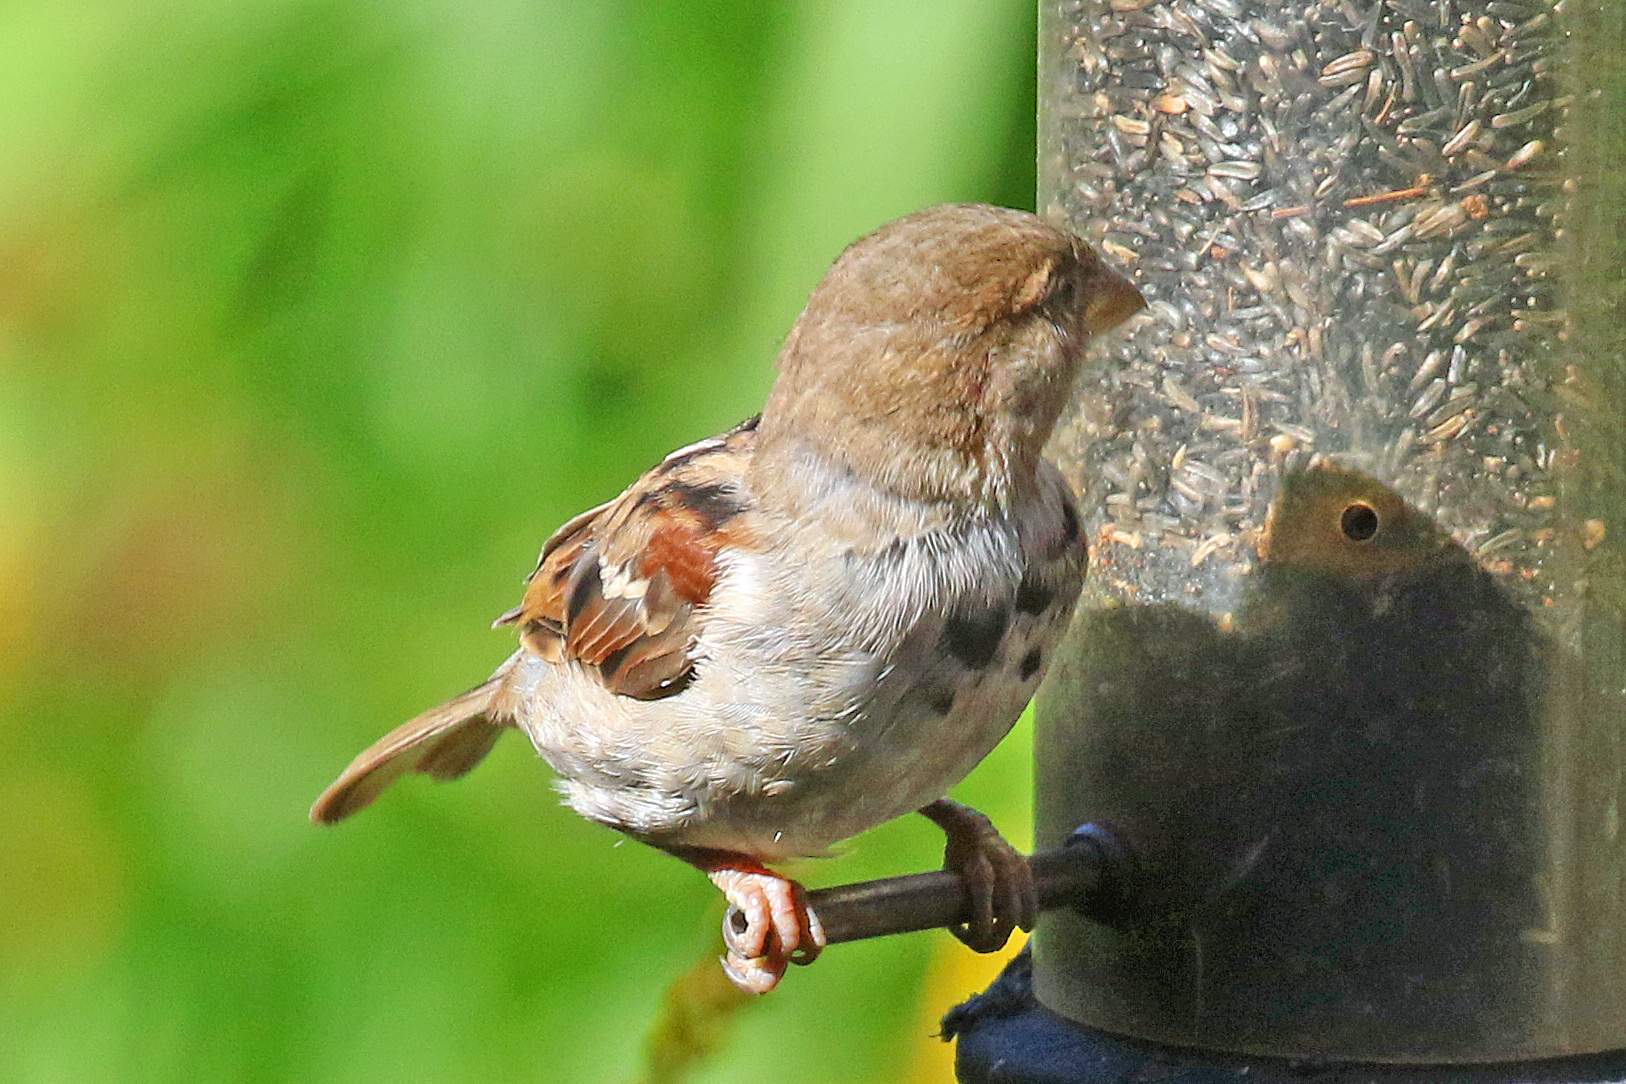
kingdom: Animalia
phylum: Chordata
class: Aves
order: Passeriformes
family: Passeridae
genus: Passer
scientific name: Passer domesticus
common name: House sparrow
